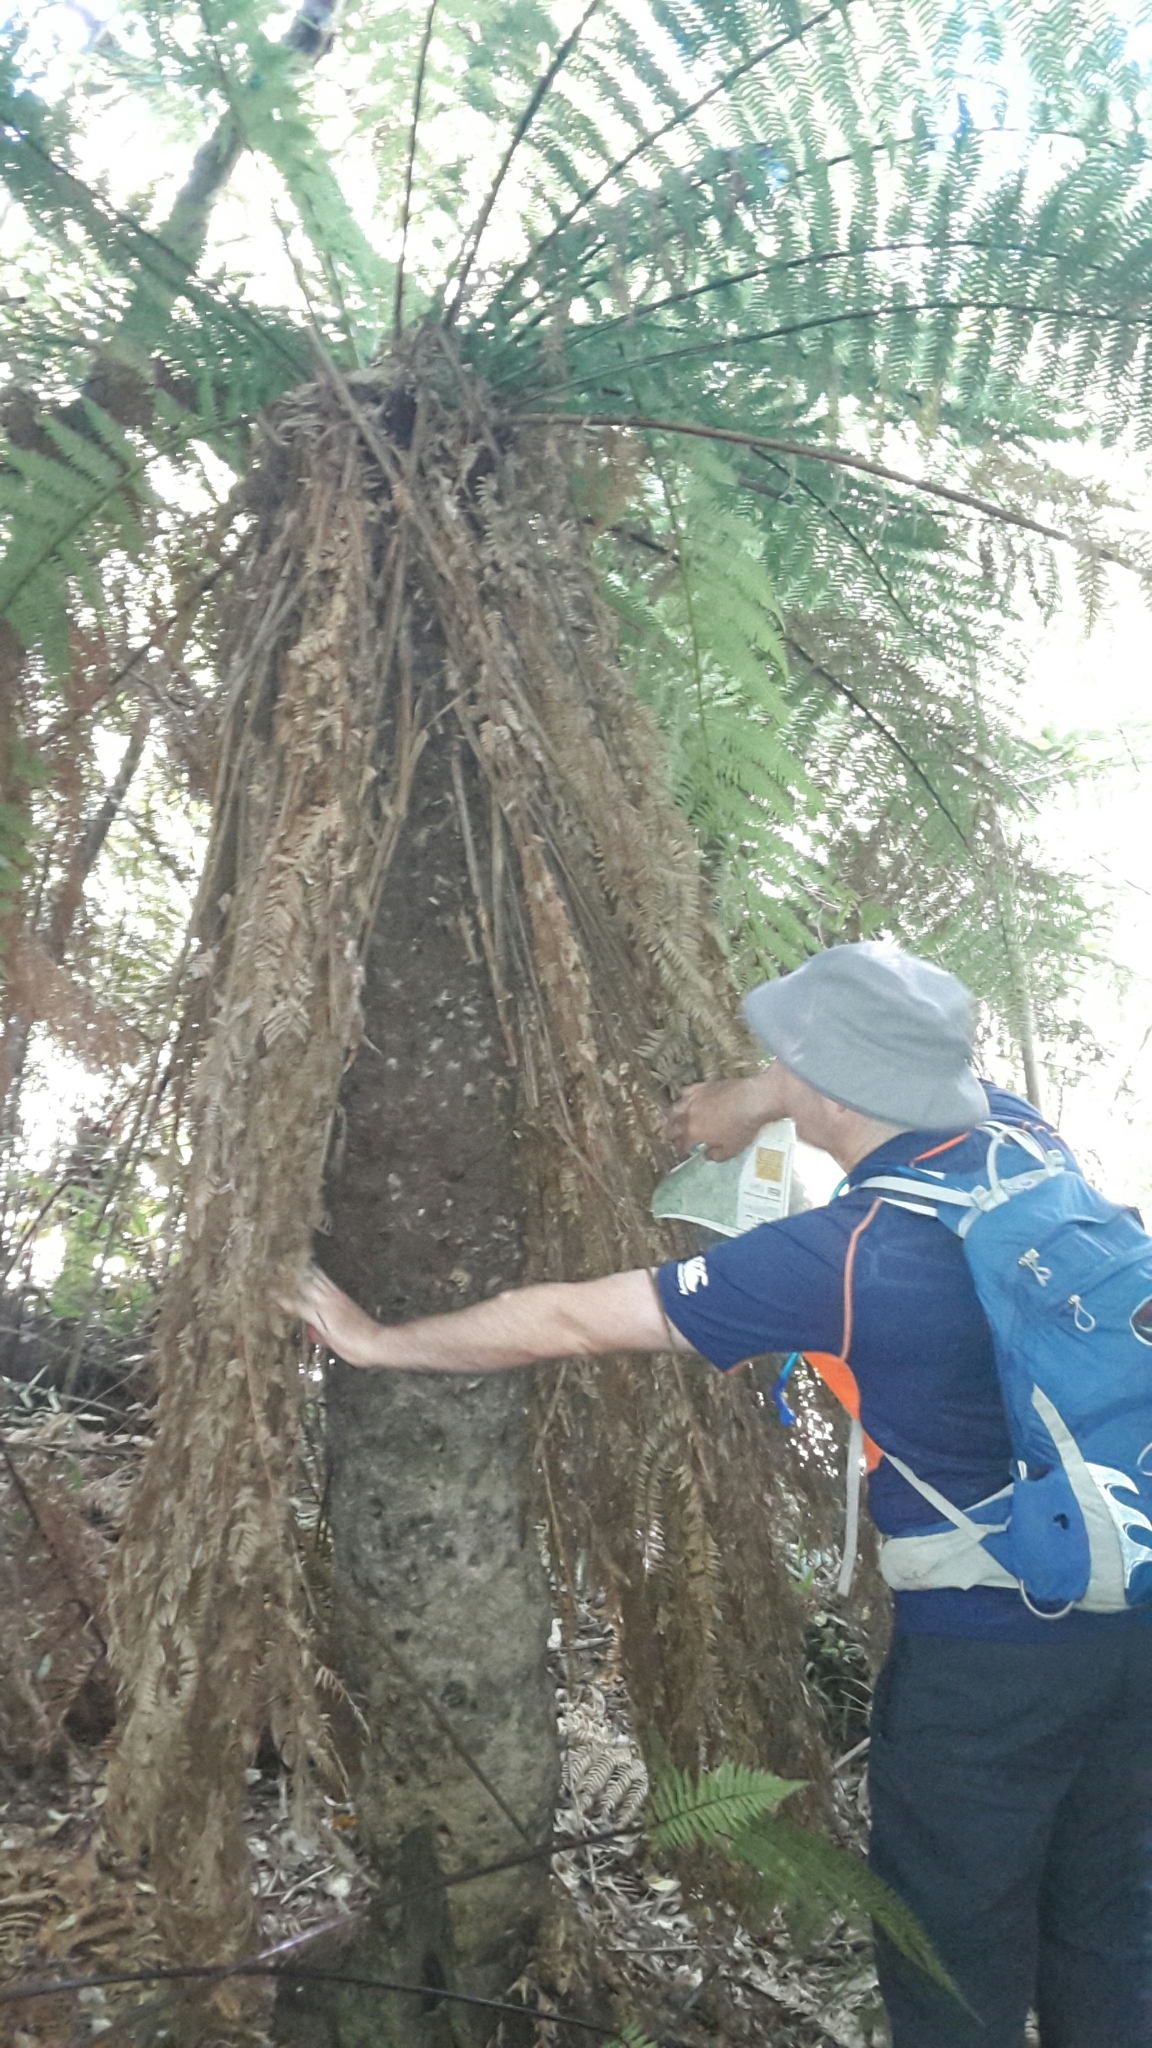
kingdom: Plantae
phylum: Tracheophyta
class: Polypodiopsida
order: Cyatheales
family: Dicksoniaceae
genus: Dicksonia
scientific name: Dicksonia fibrosa
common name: Golden tree fern
